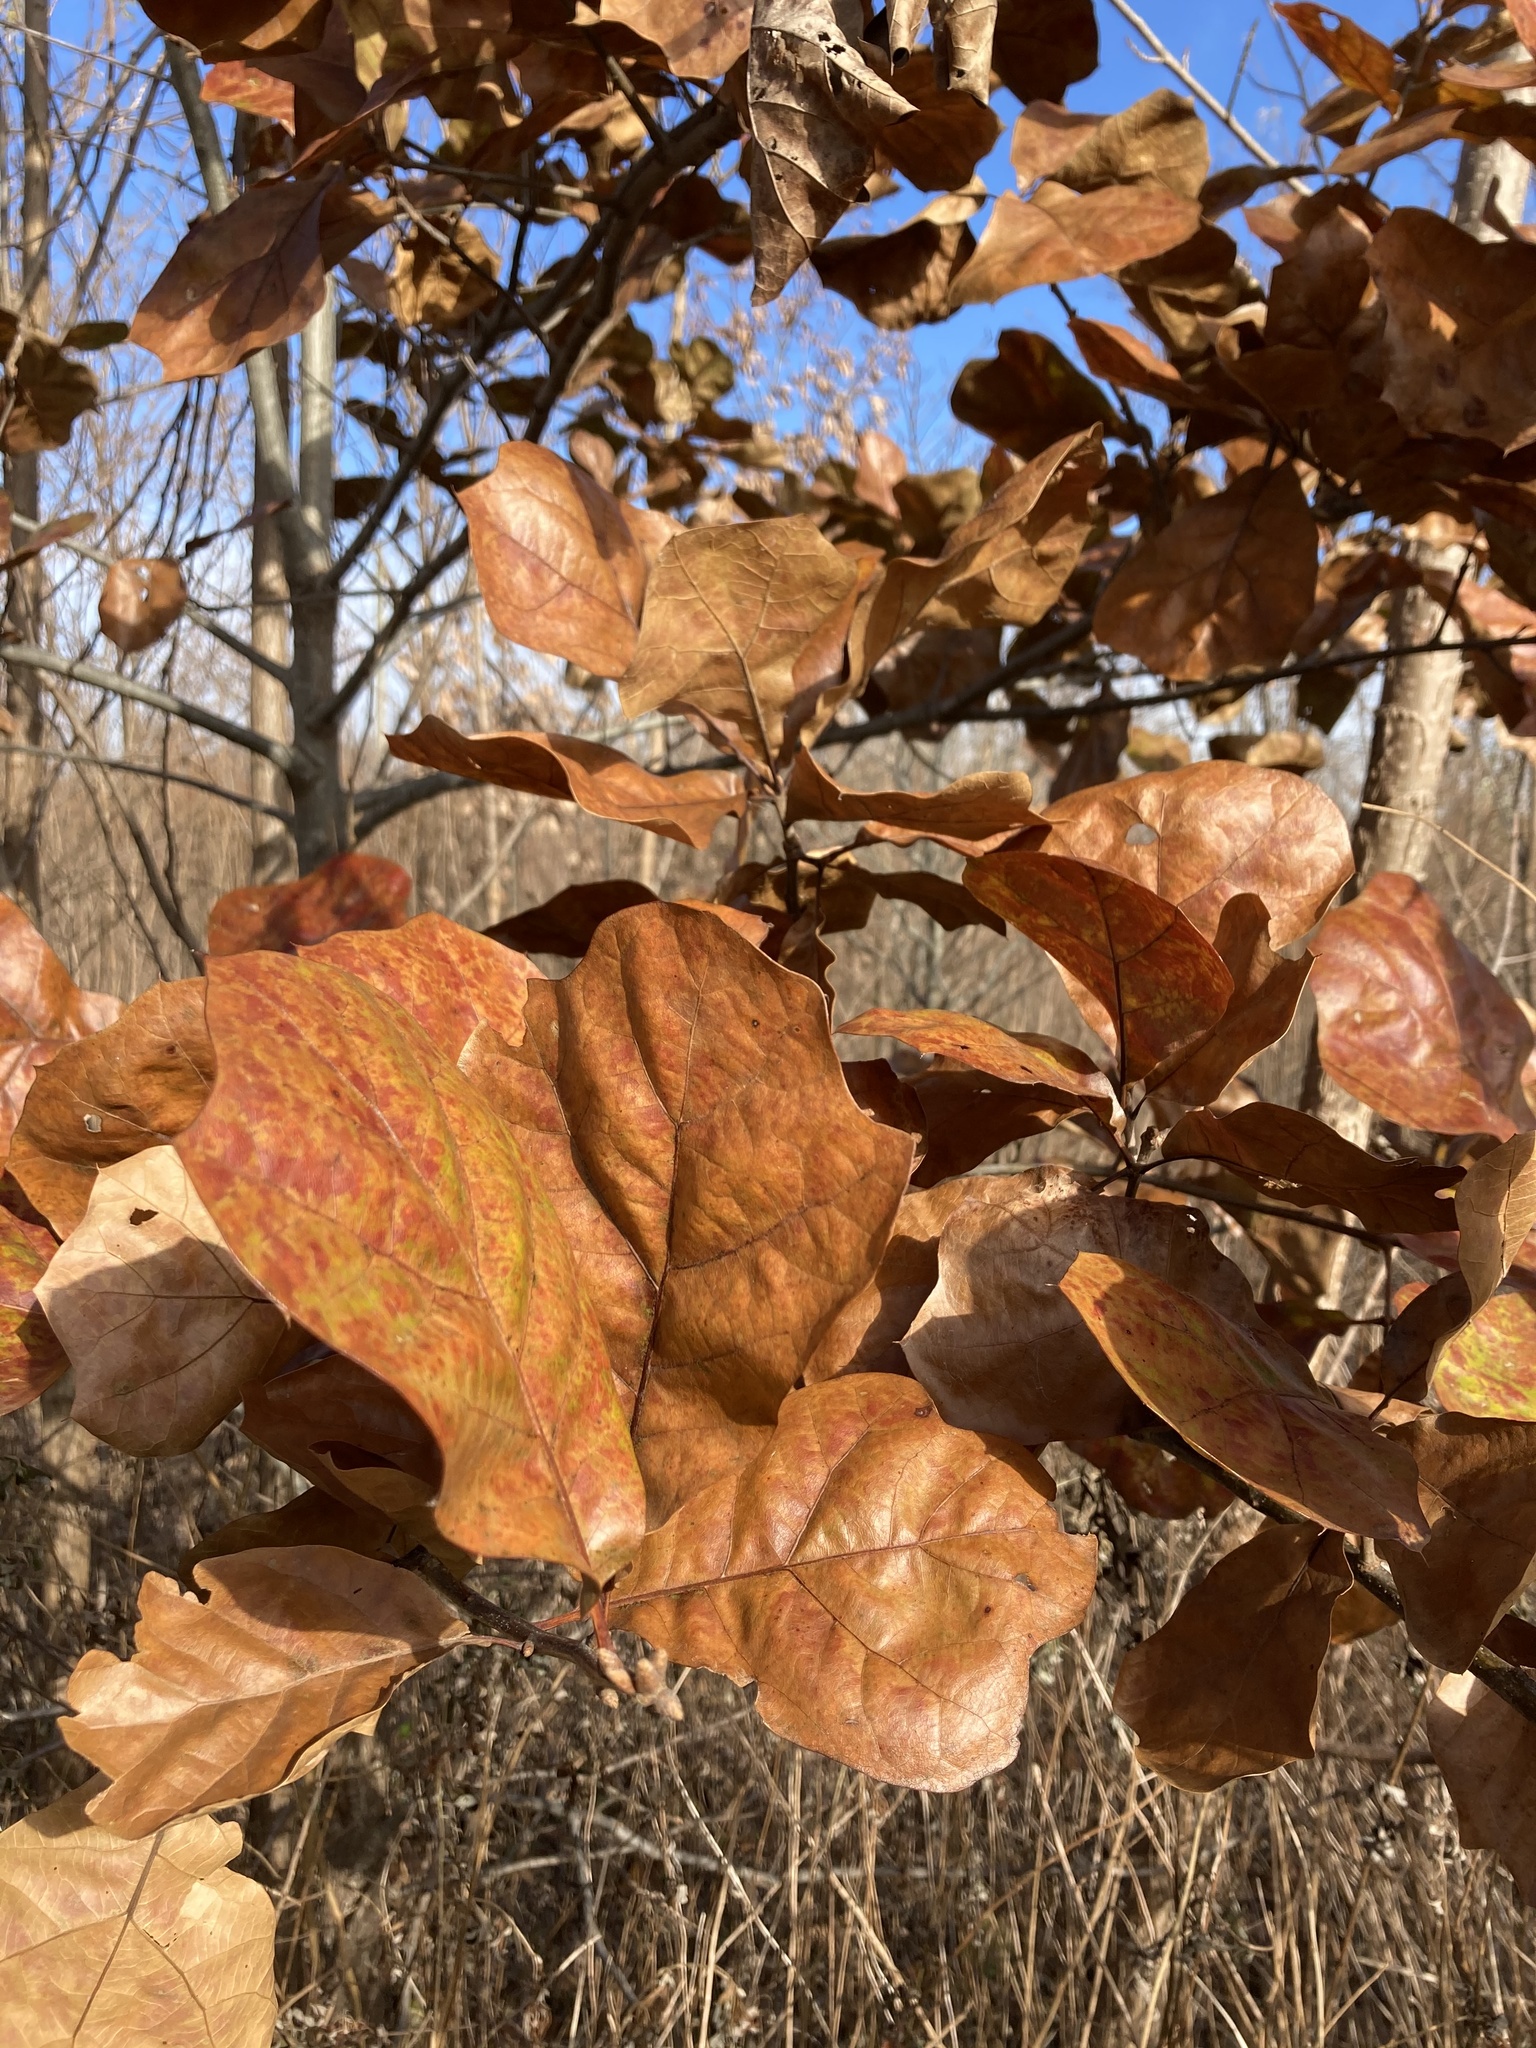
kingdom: Plantae
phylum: Tracheophyta
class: Magnoliopsida
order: Fagales
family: Fagaceae
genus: Quercus
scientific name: Quercus marilandica
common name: Blackjack oak
